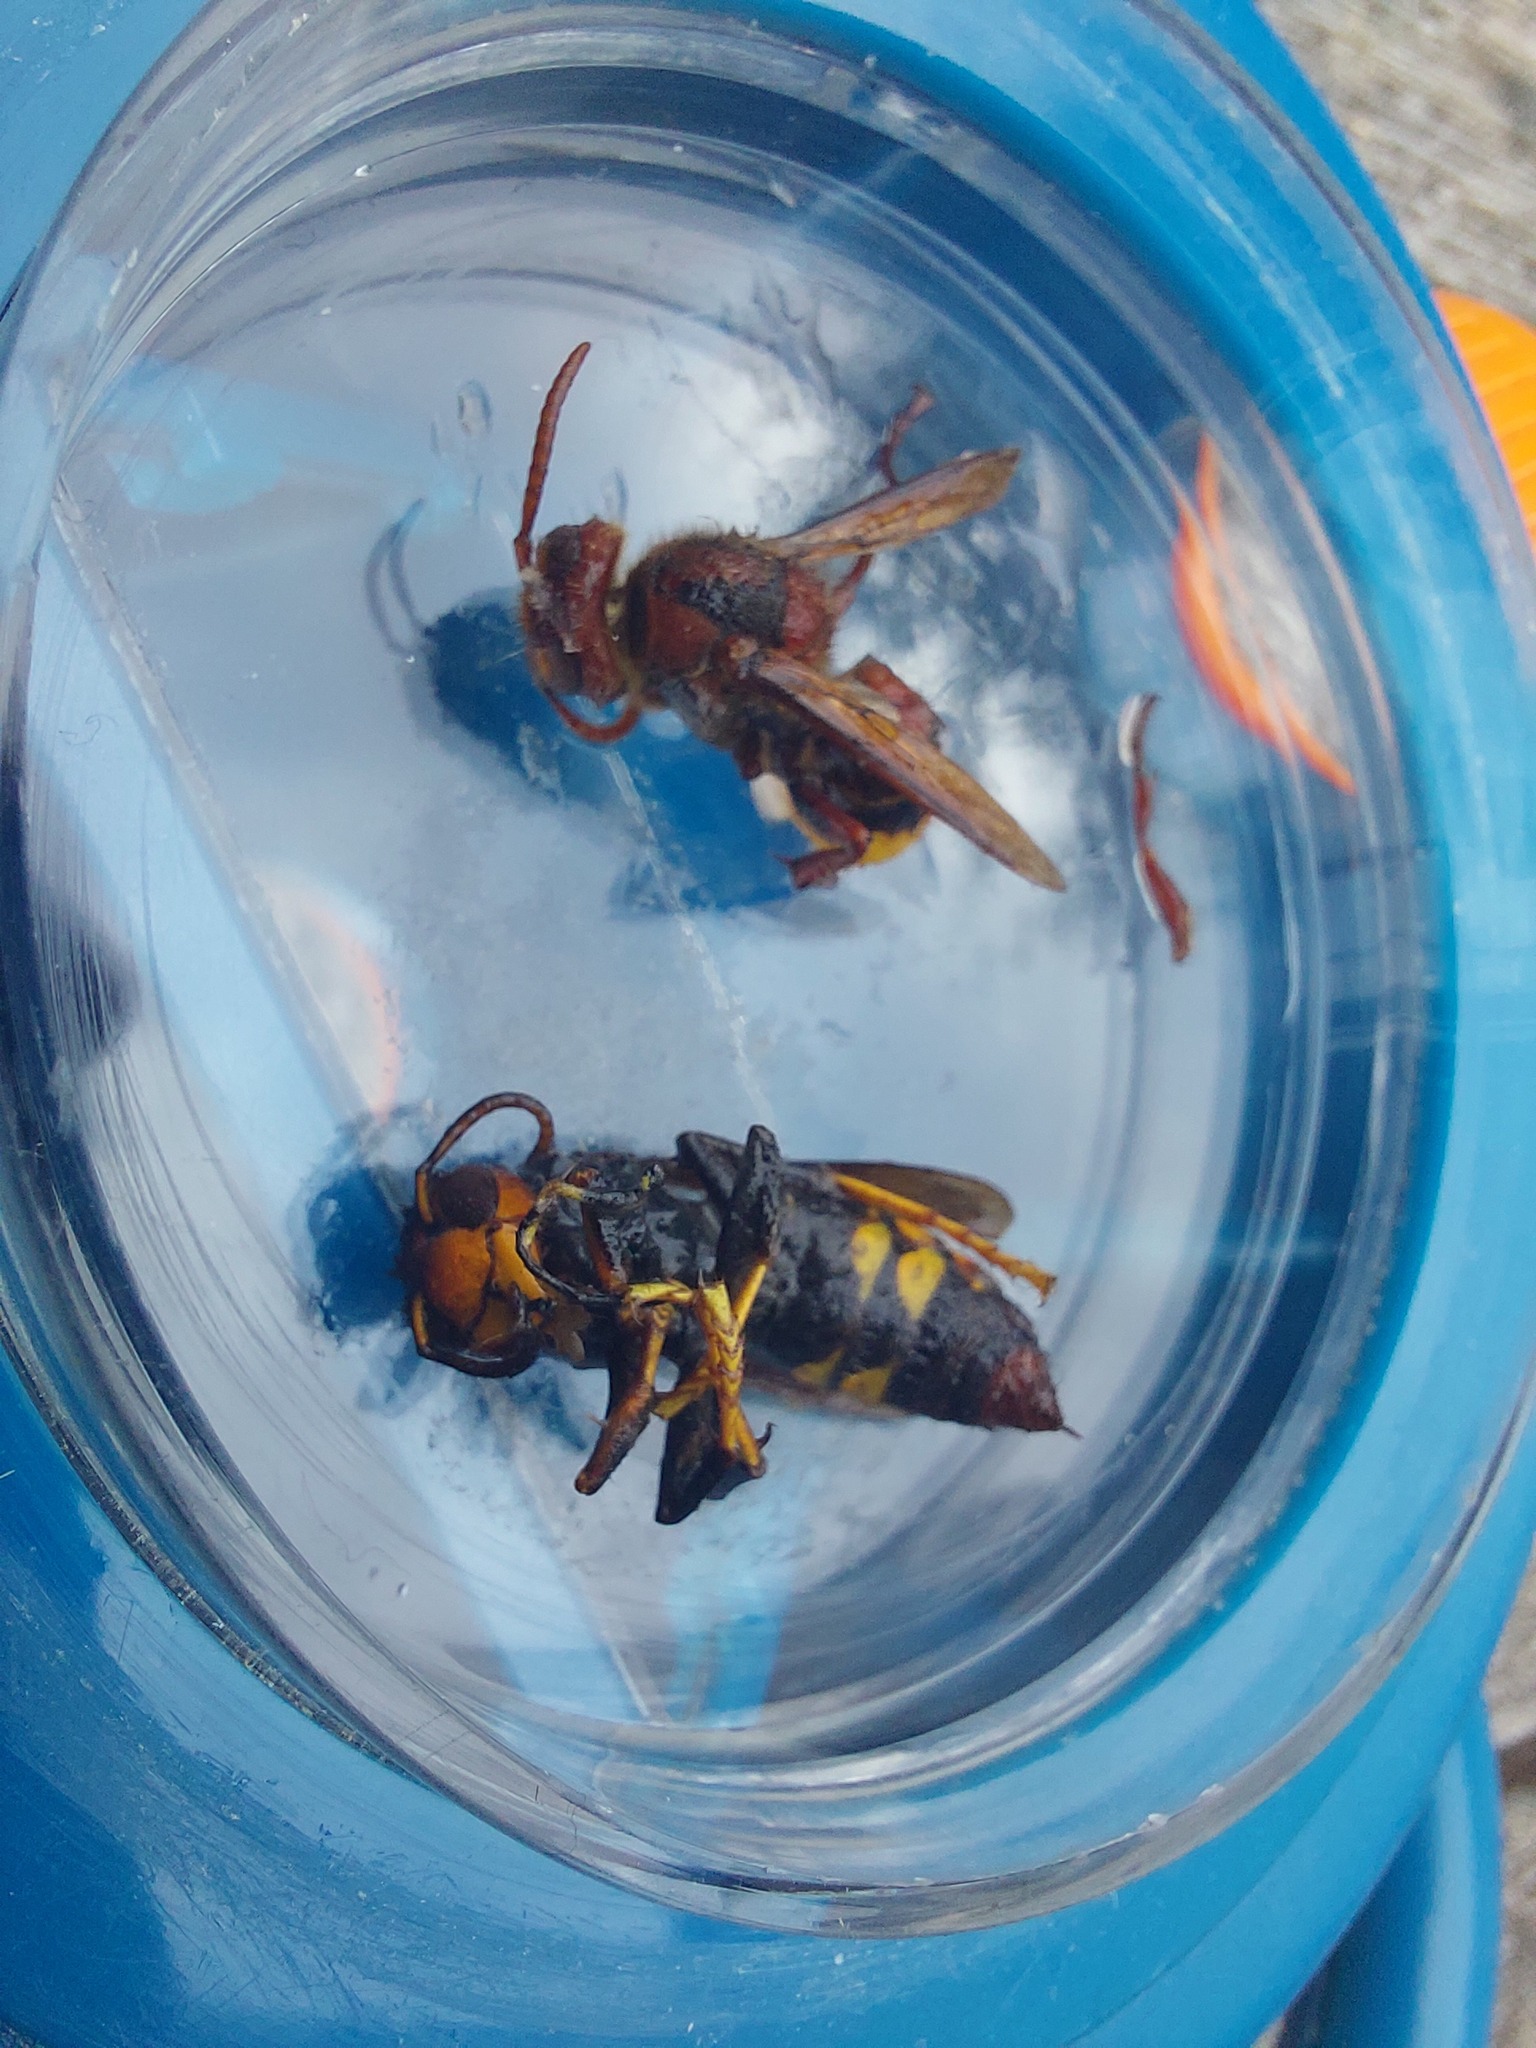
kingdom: Animalia
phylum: Arthropoda
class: Insecta
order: Hymenoptera
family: Vespidae
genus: Vespa
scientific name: Vespa velutina
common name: Asian hornet
